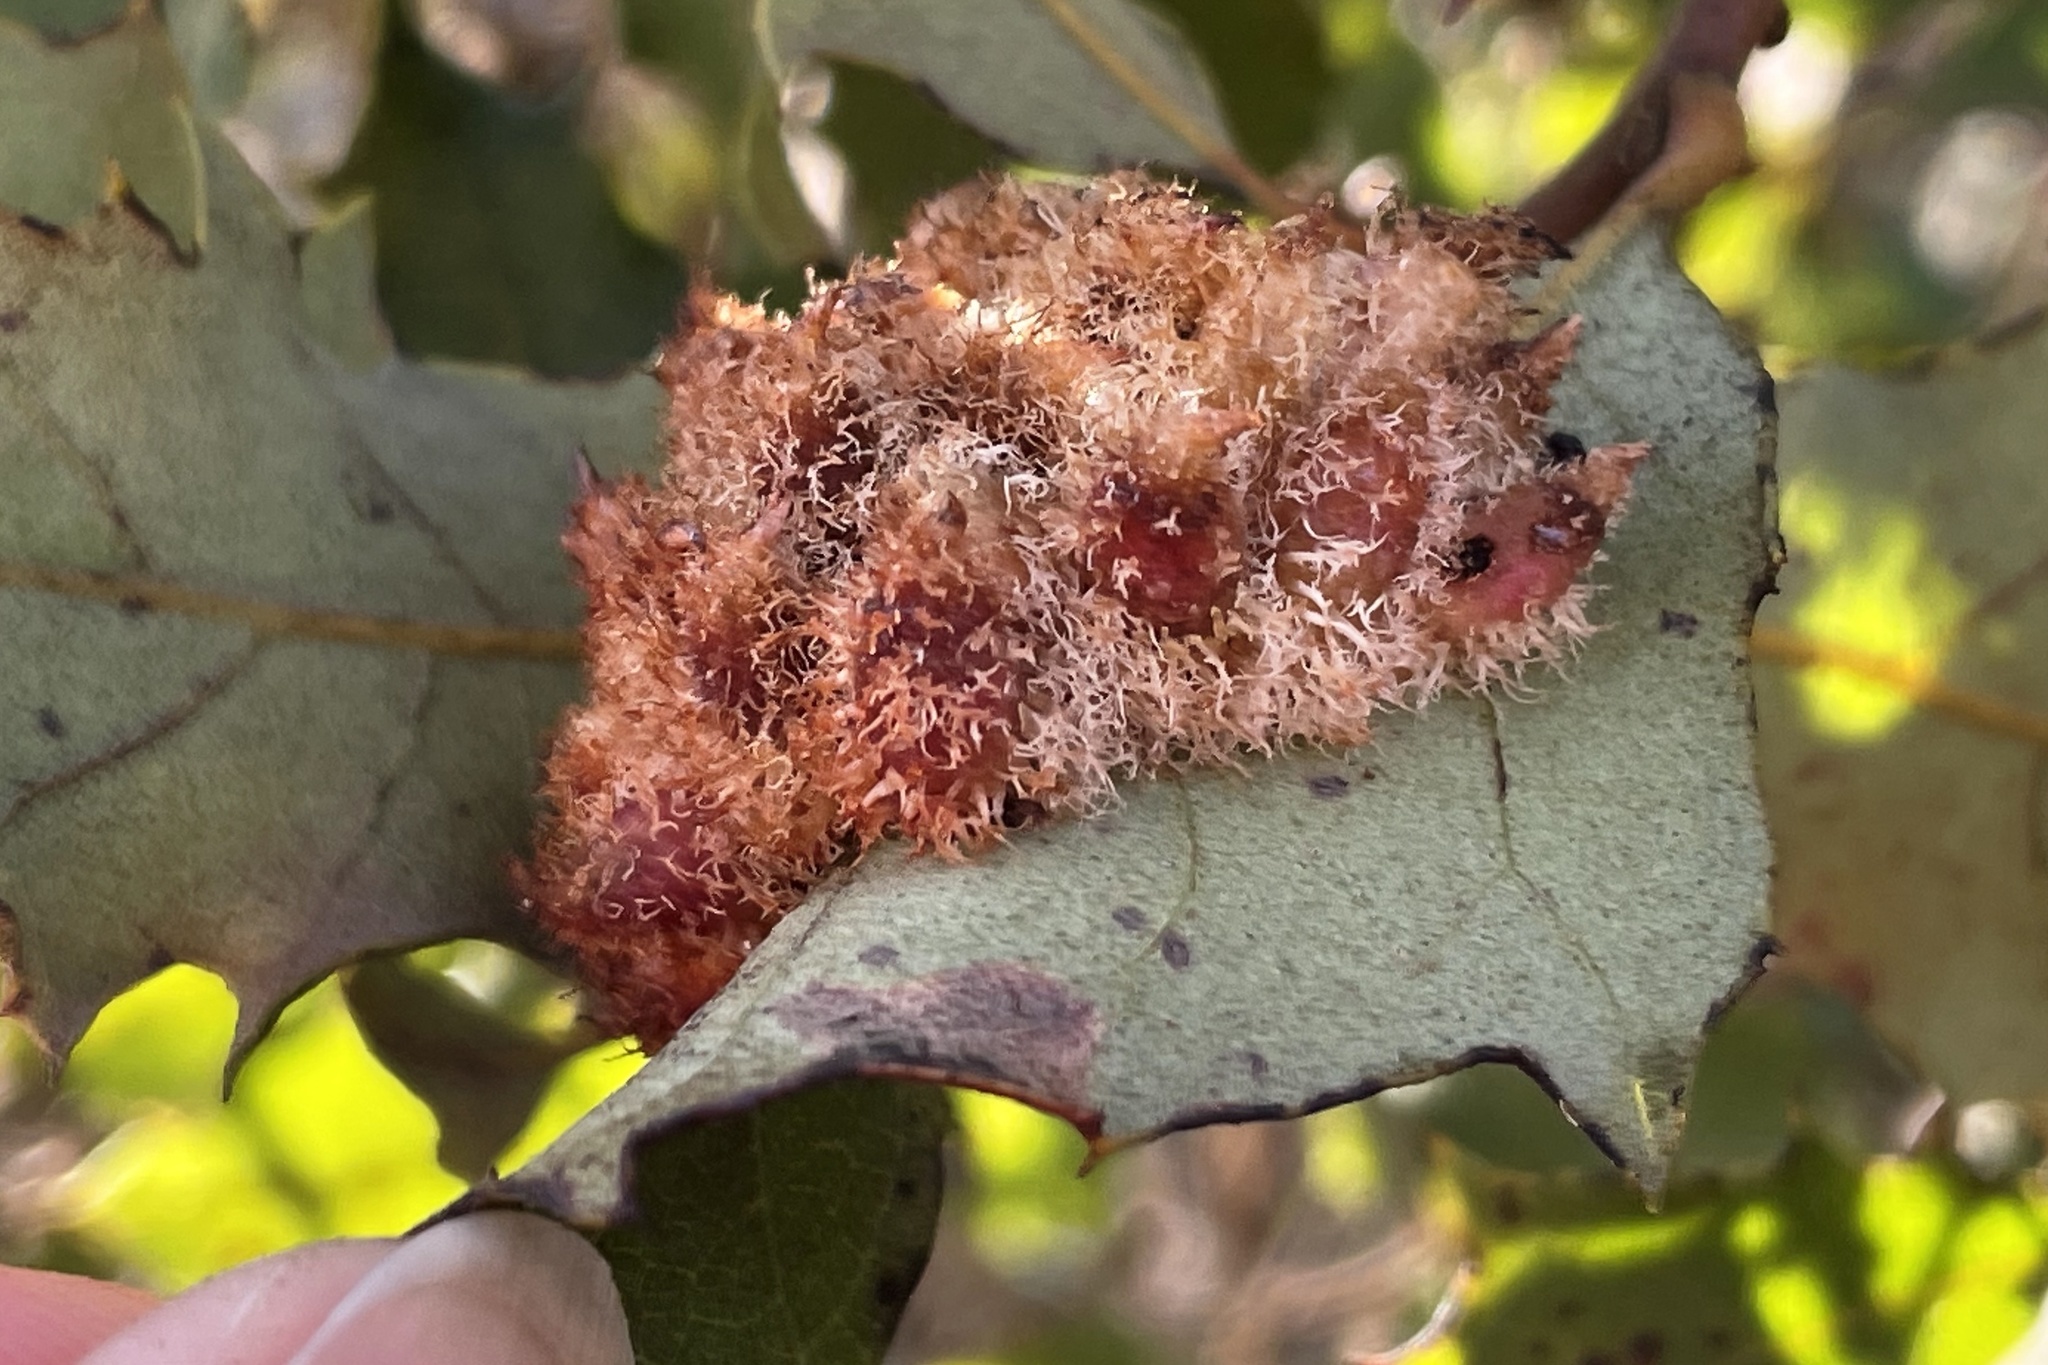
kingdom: Animalia
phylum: Arthropoda
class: Insecta
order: Hymenoptera
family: Cynipidae
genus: Andricus
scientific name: Andricus
